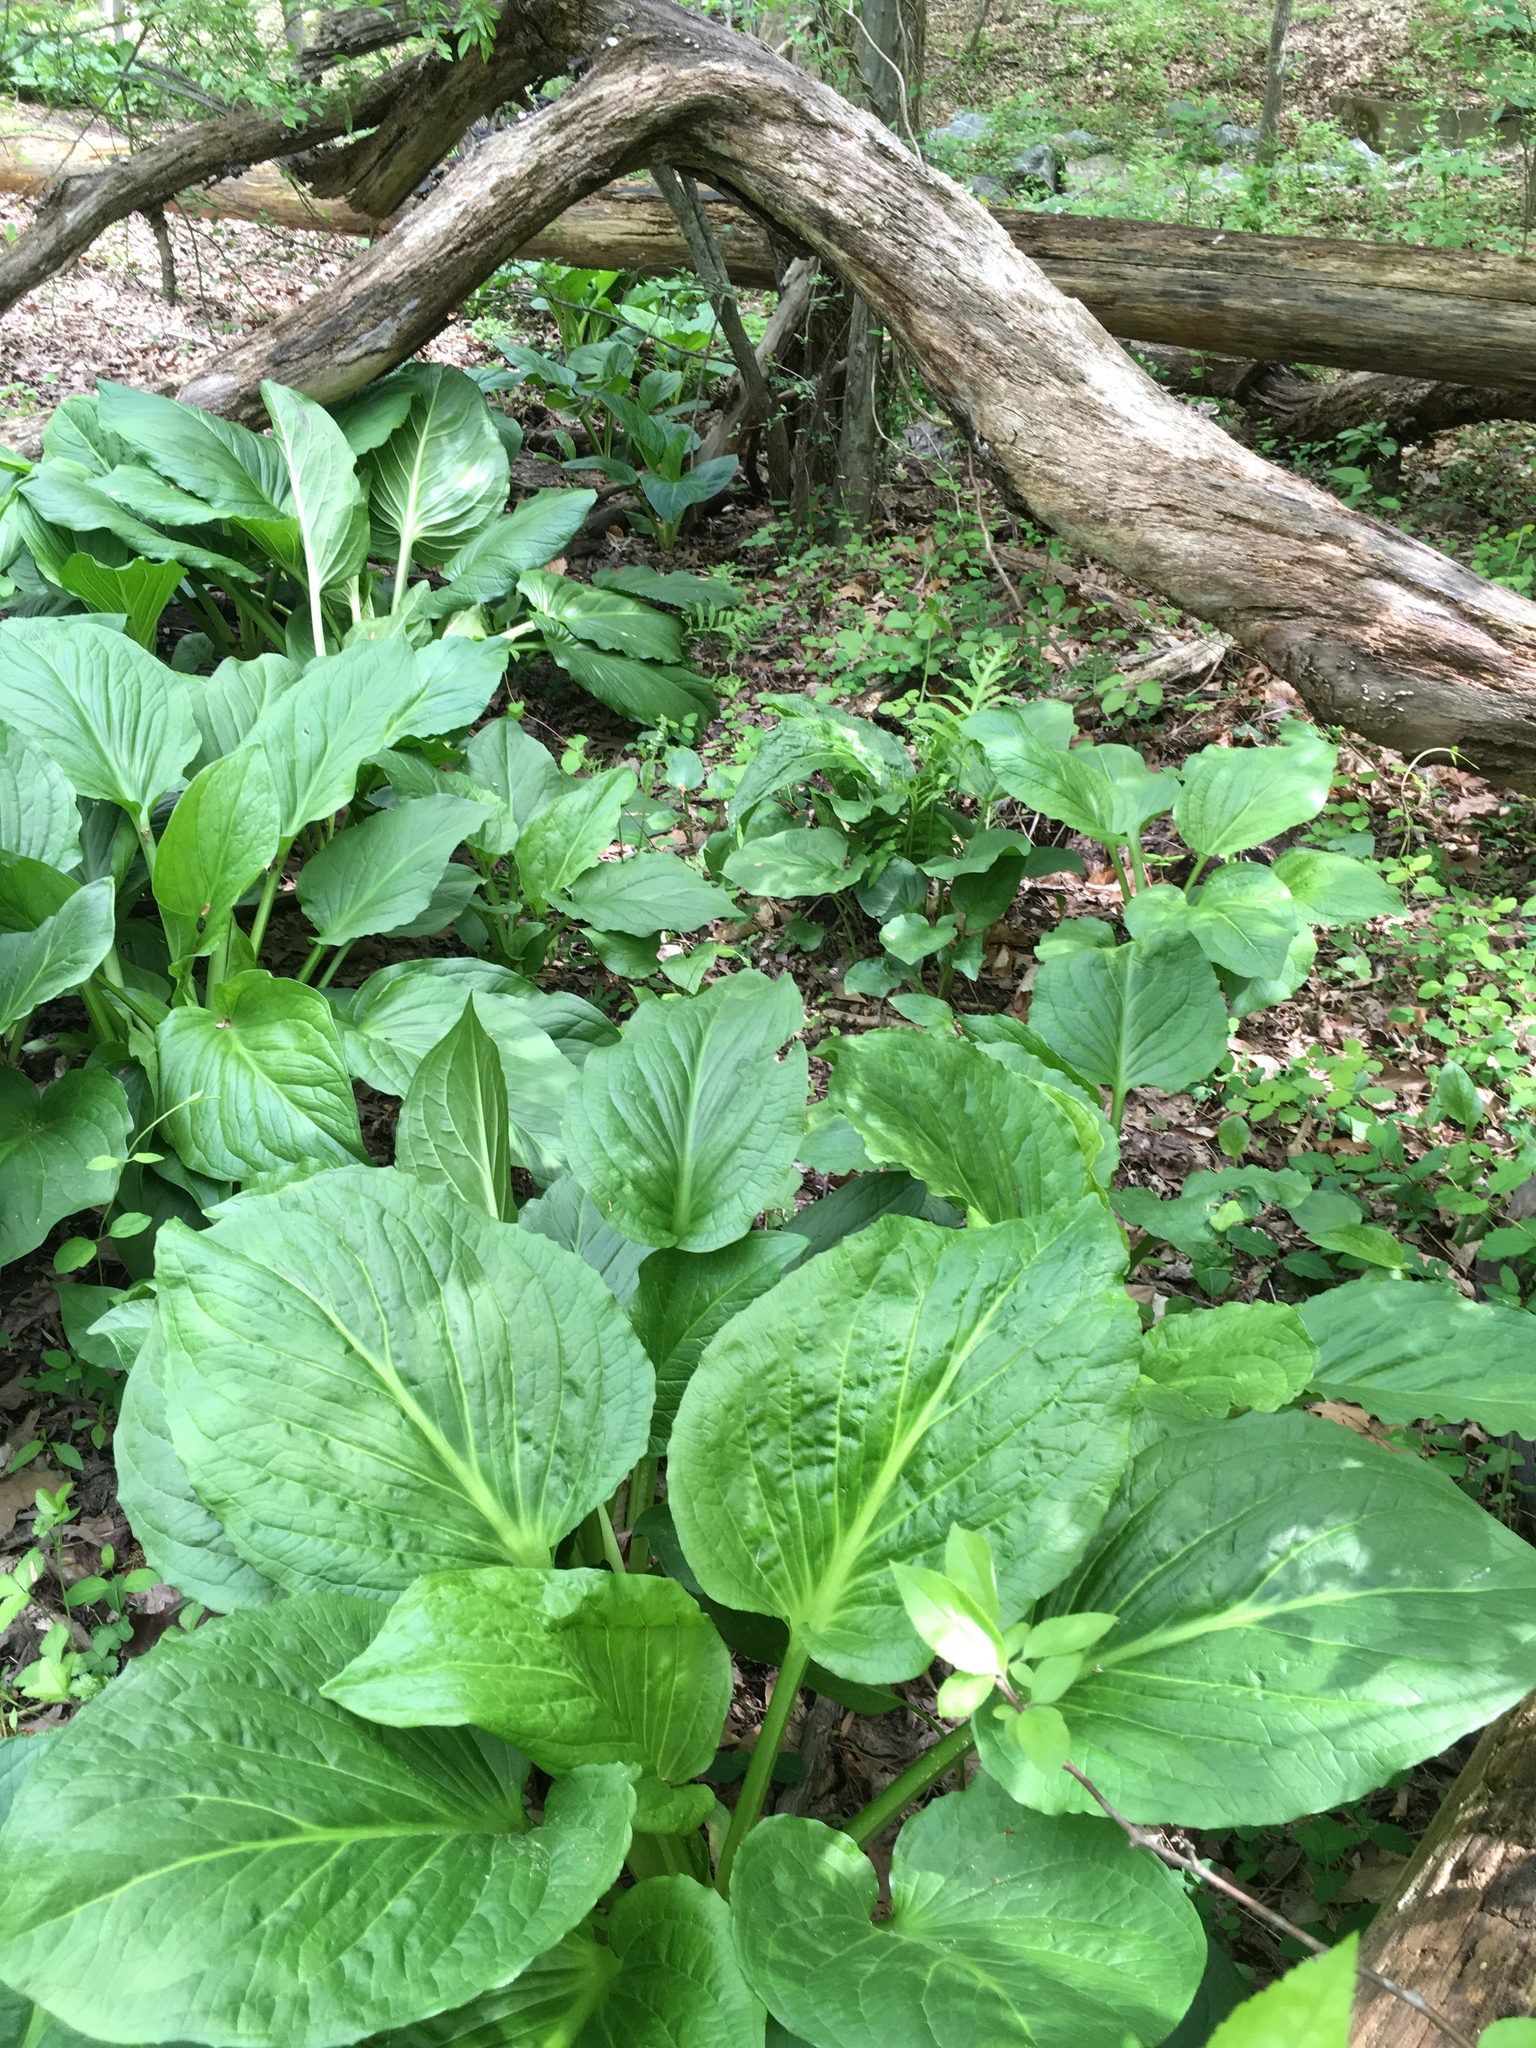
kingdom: Plantae
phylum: Tracheophyta
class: Liliopsida
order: Alismatales
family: Araceae
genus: Symplocarpus
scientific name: Symplocarpus foetidus
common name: Eastern skunk cabbage
